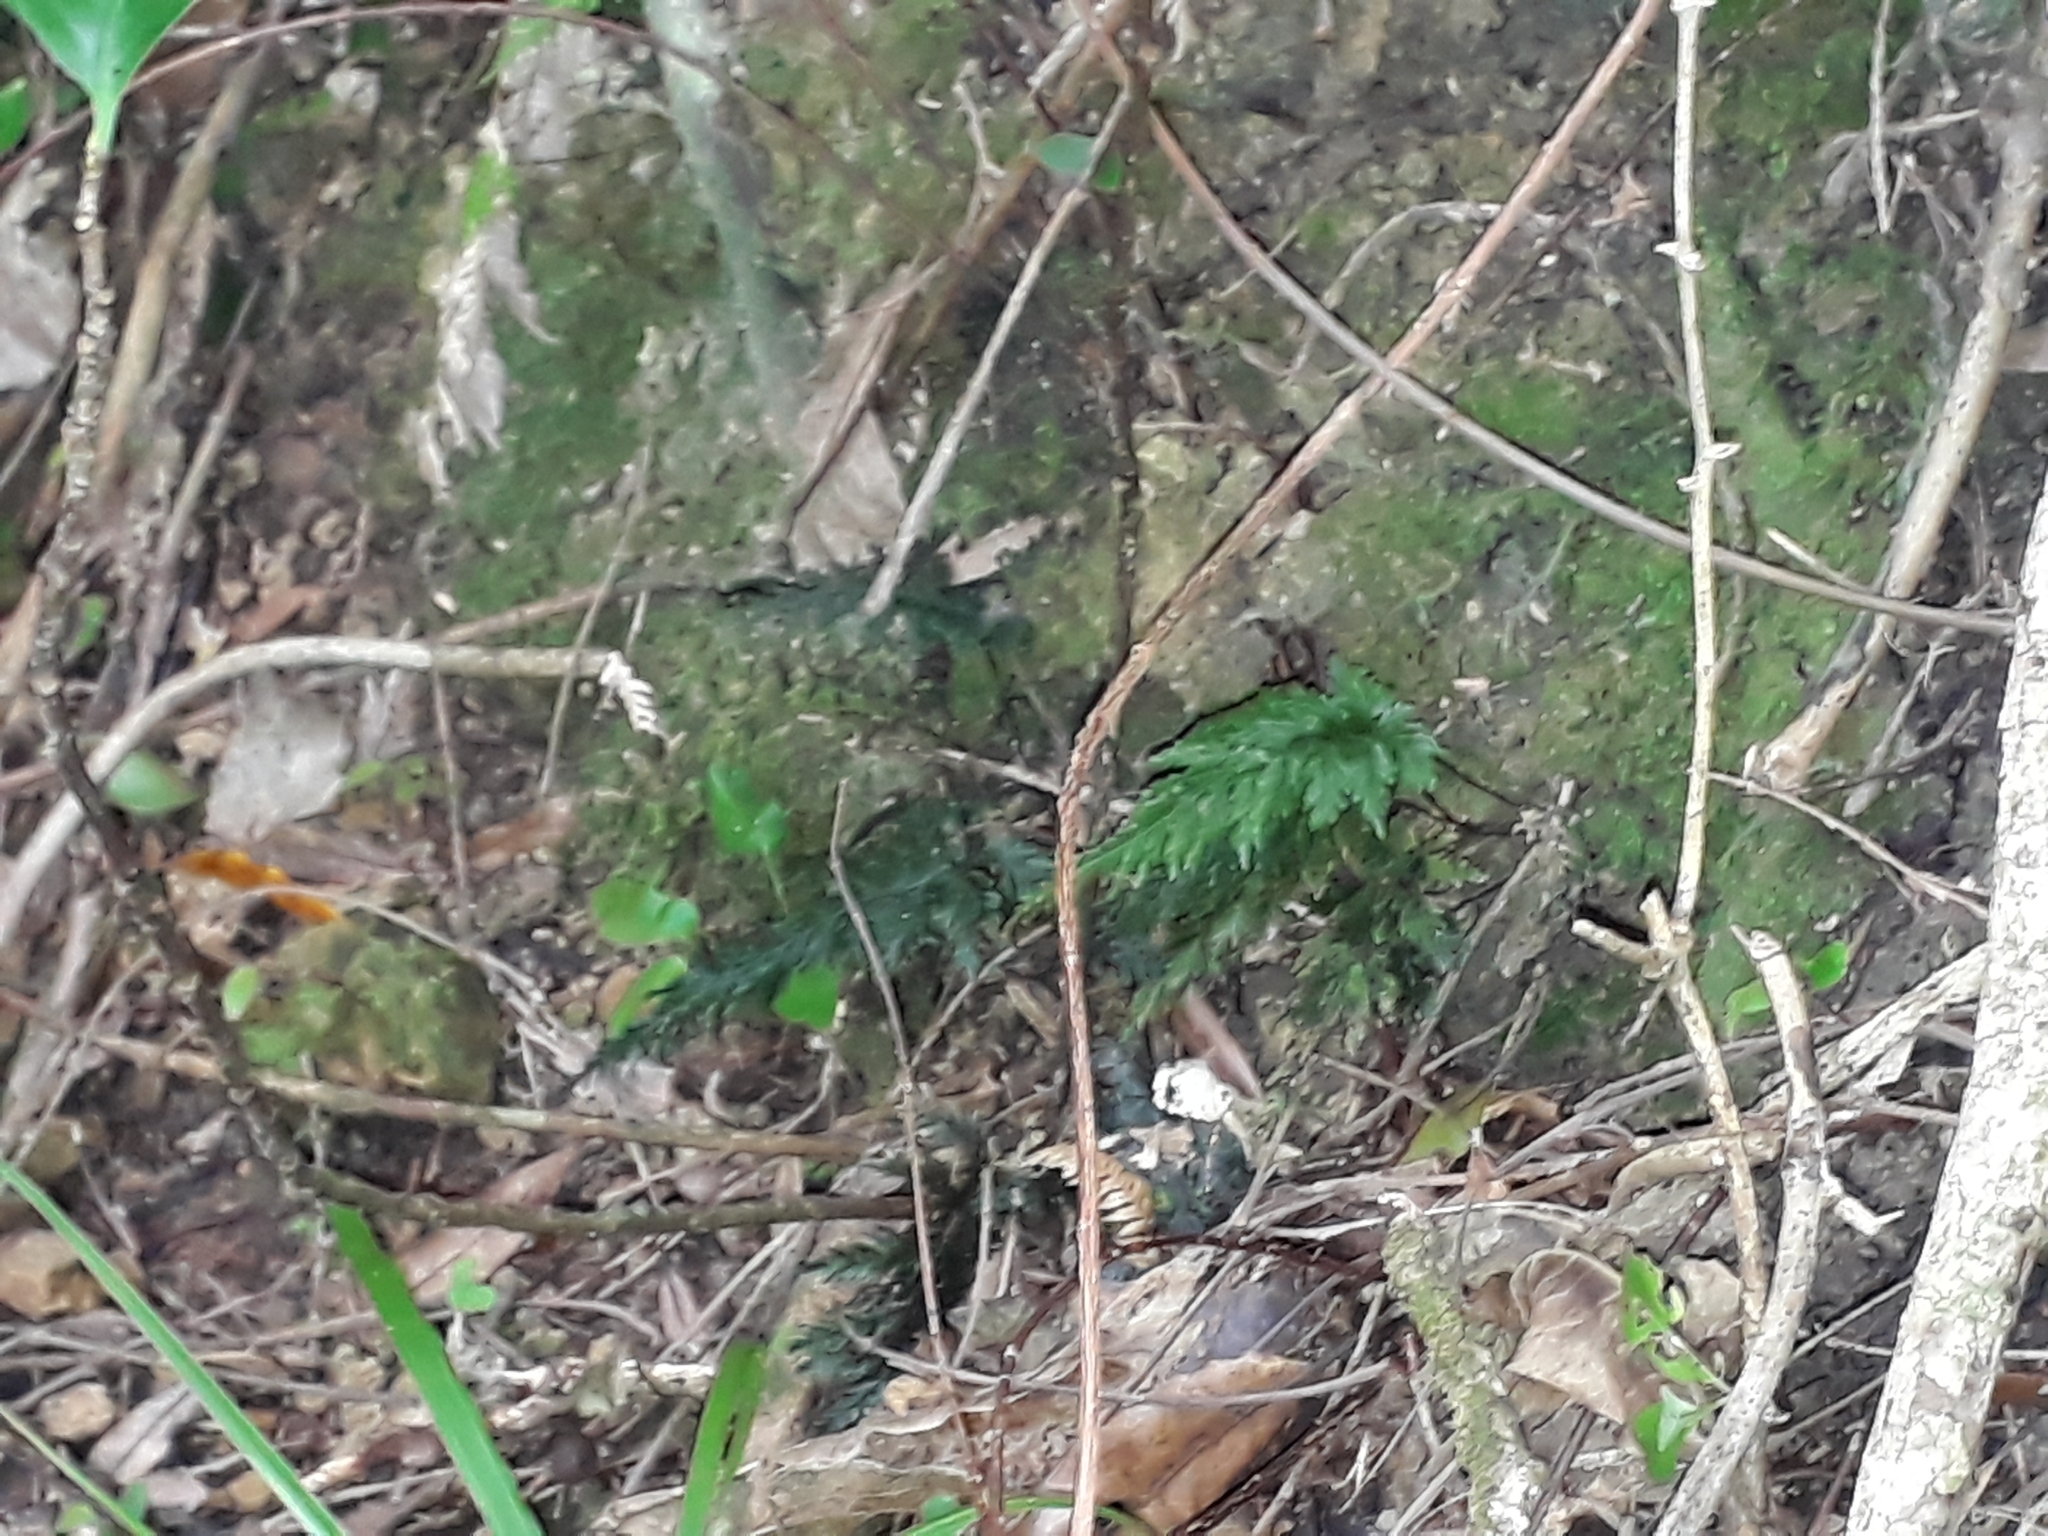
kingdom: Plantae
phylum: Tracheophyta
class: Polypodiopsida
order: Hymenophyllales
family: Hymenophyllaceae
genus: Abrodictyum
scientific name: Abrodictyum elongatum
